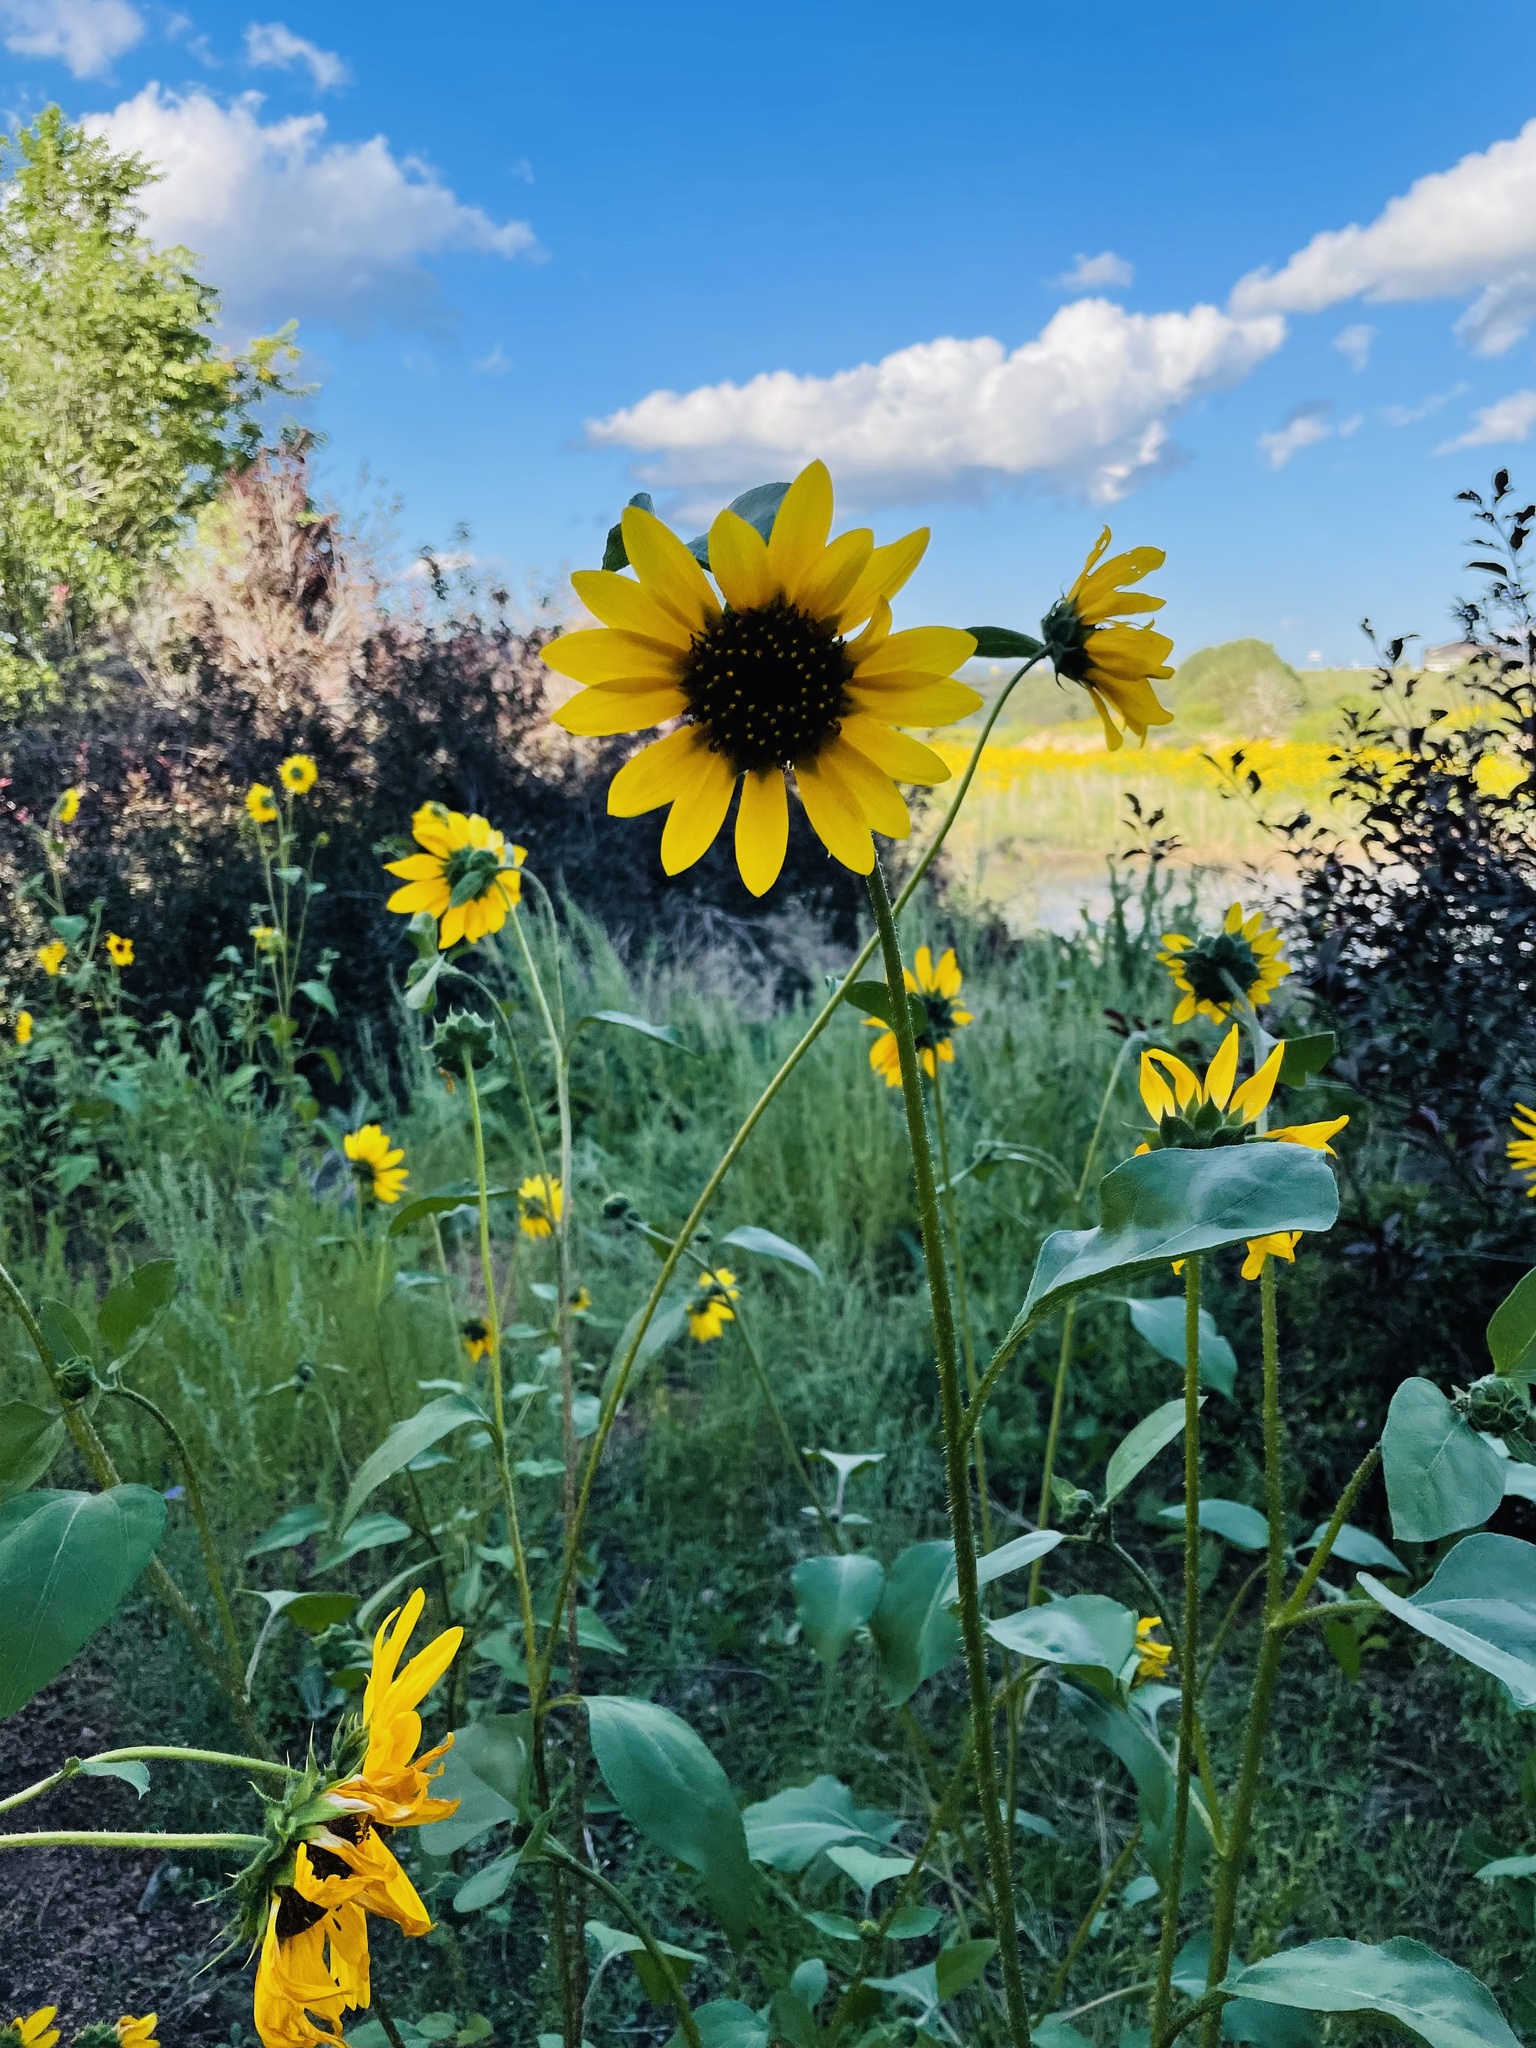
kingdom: Plantae
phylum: Tracheophyta
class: Magnoliopsida
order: Asterales
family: Asteraceae
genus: Helianthus
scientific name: Helianthus petiolaris
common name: Lesser sunflower
